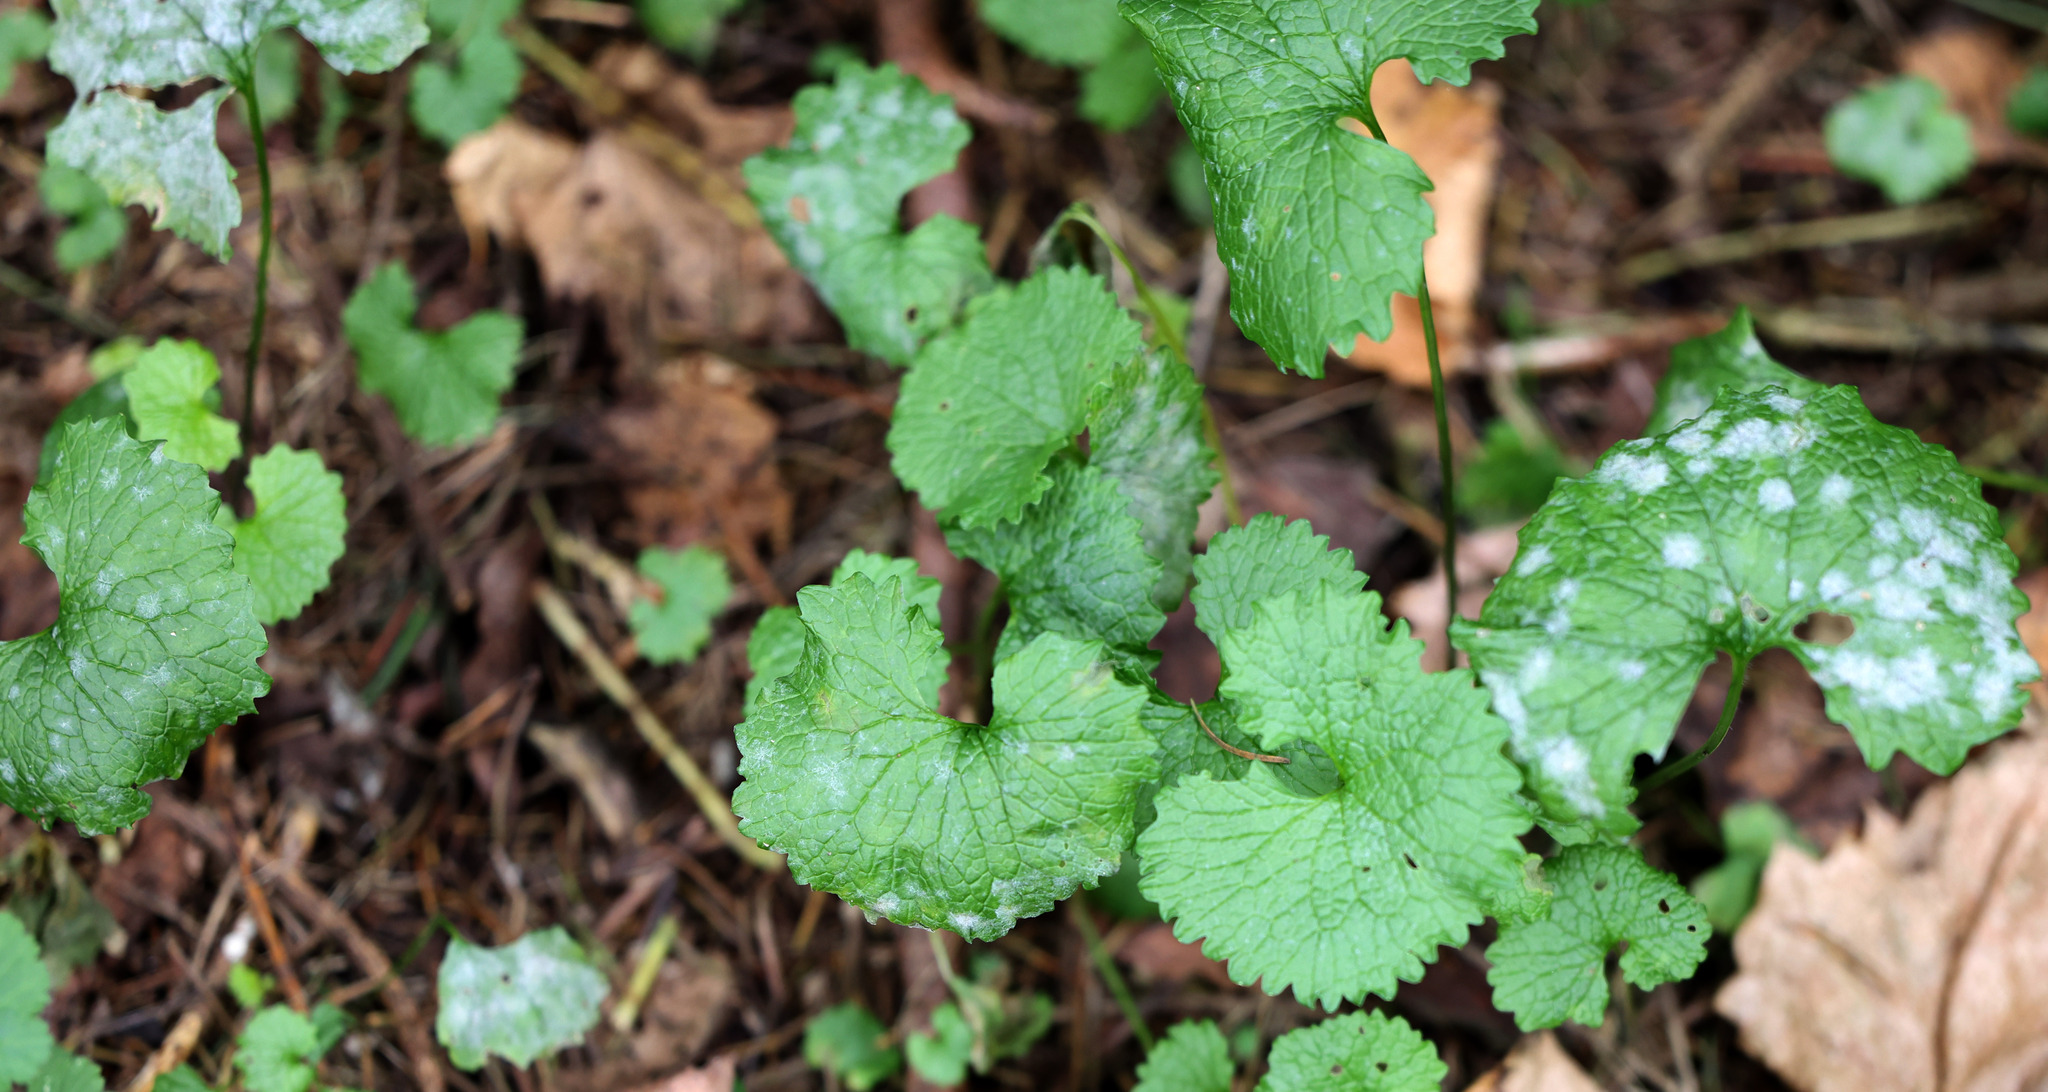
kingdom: Fungi
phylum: Ascomycota
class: Leotiomycetes
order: Helotiales
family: Erysiphaceae
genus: Erysiphe
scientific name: Erysiphe cruciferarum
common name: Brassica powdery mildew
